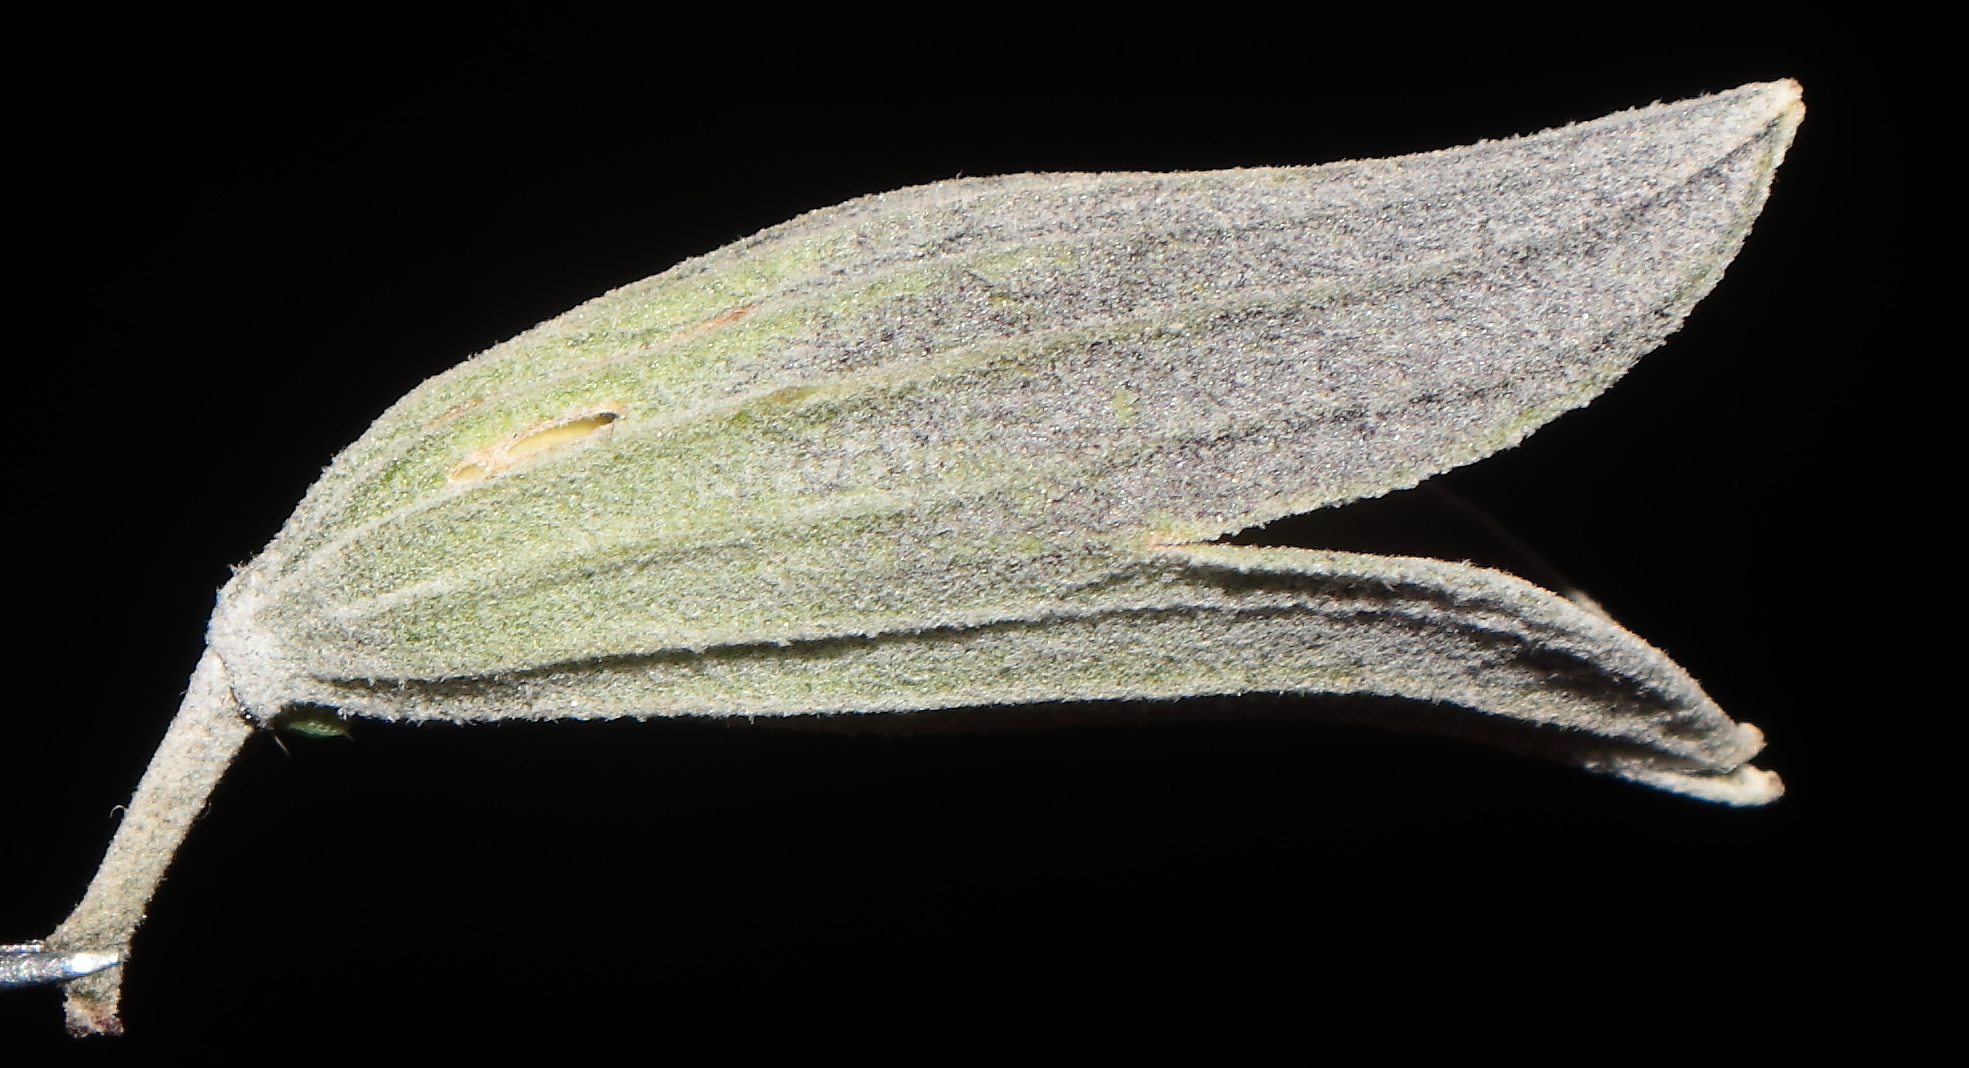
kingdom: Plantae
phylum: Tracheophyta
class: Magnoliopsida
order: Lamiales
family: Lamiaceae
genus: Salvia
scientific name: Salvia discolor
